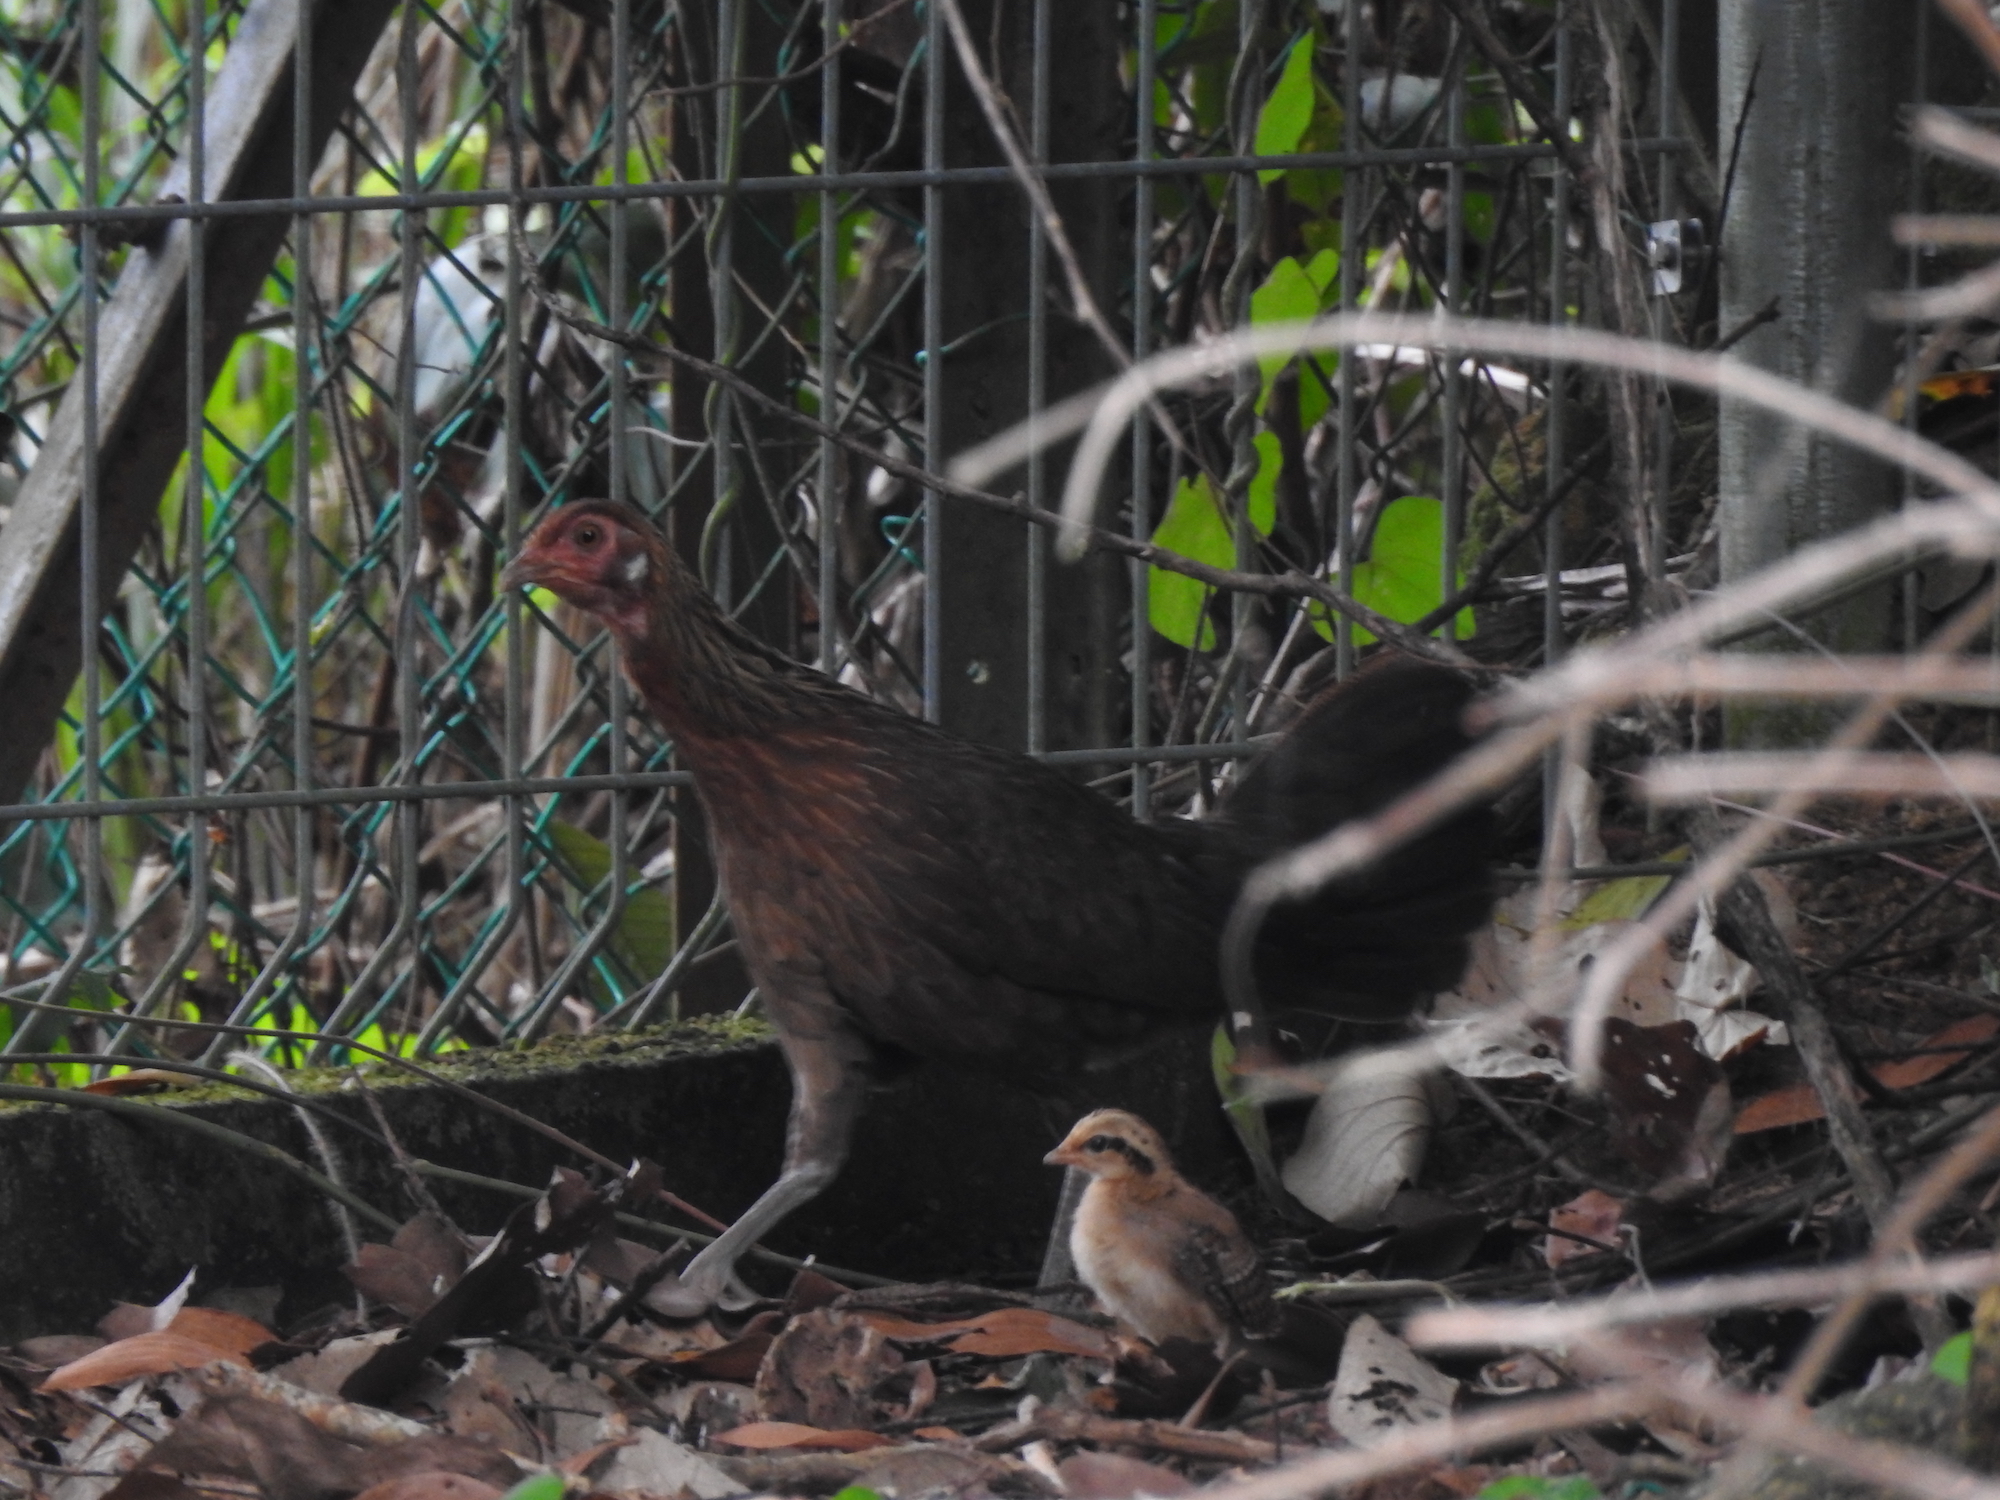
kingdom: Animalia
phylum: Chordata
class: Aves
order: Galliformes
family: Phasianidae
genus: Gallus
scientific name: Gallus gallus
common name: Red junglefowl
